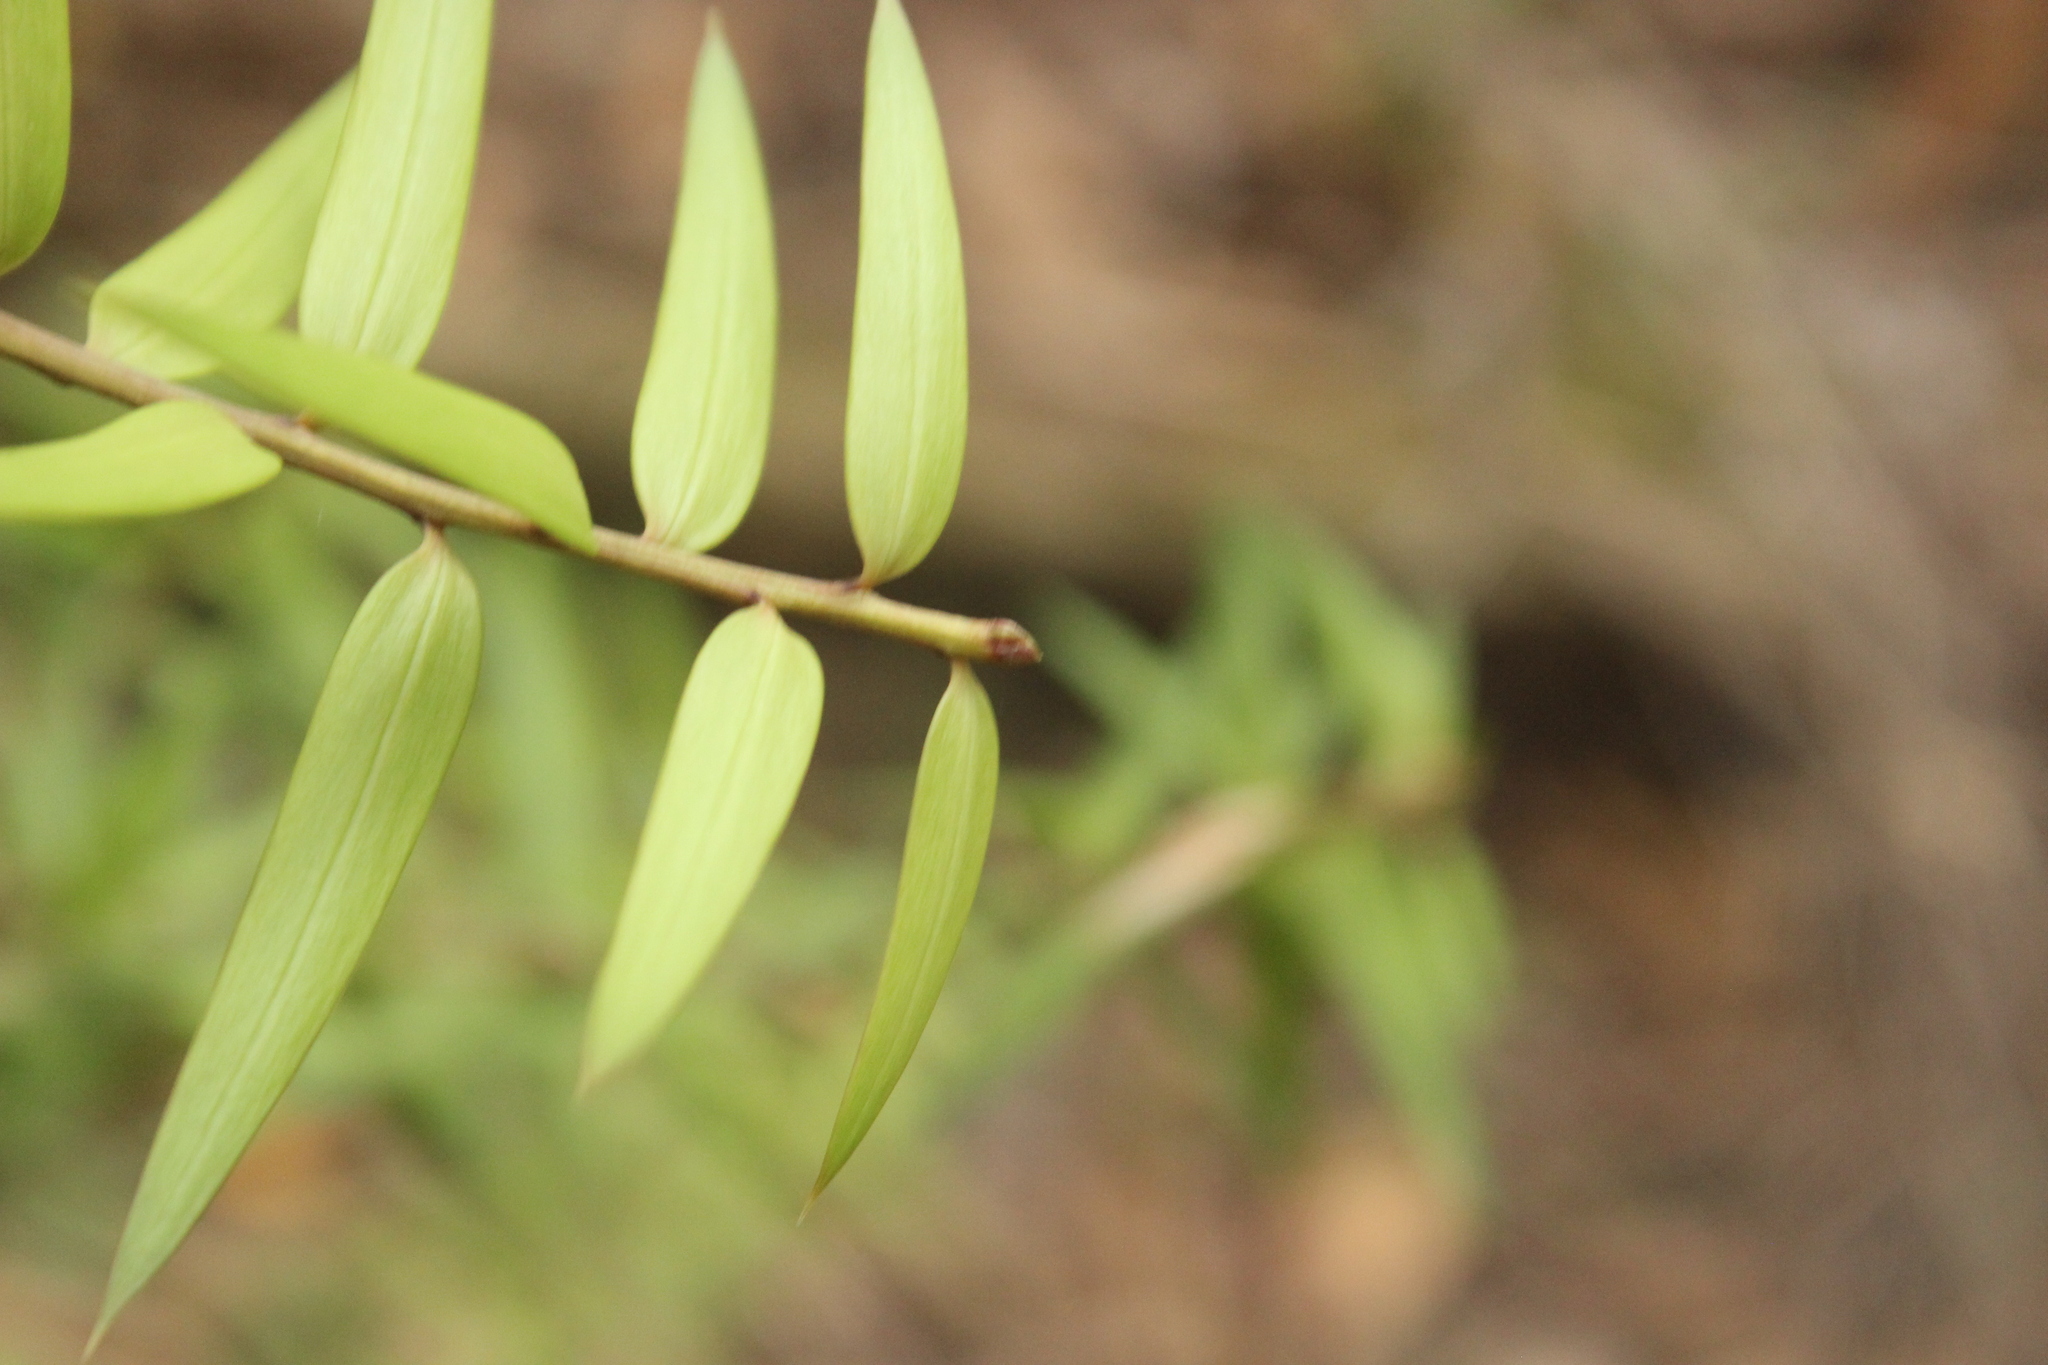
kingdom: Plantae
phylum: Tracheophyta
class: Pinopsida
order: Pinales
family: Podocarpaceae
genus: Podocarpus
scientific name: Podocarpus laetus
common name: Hall's totara
